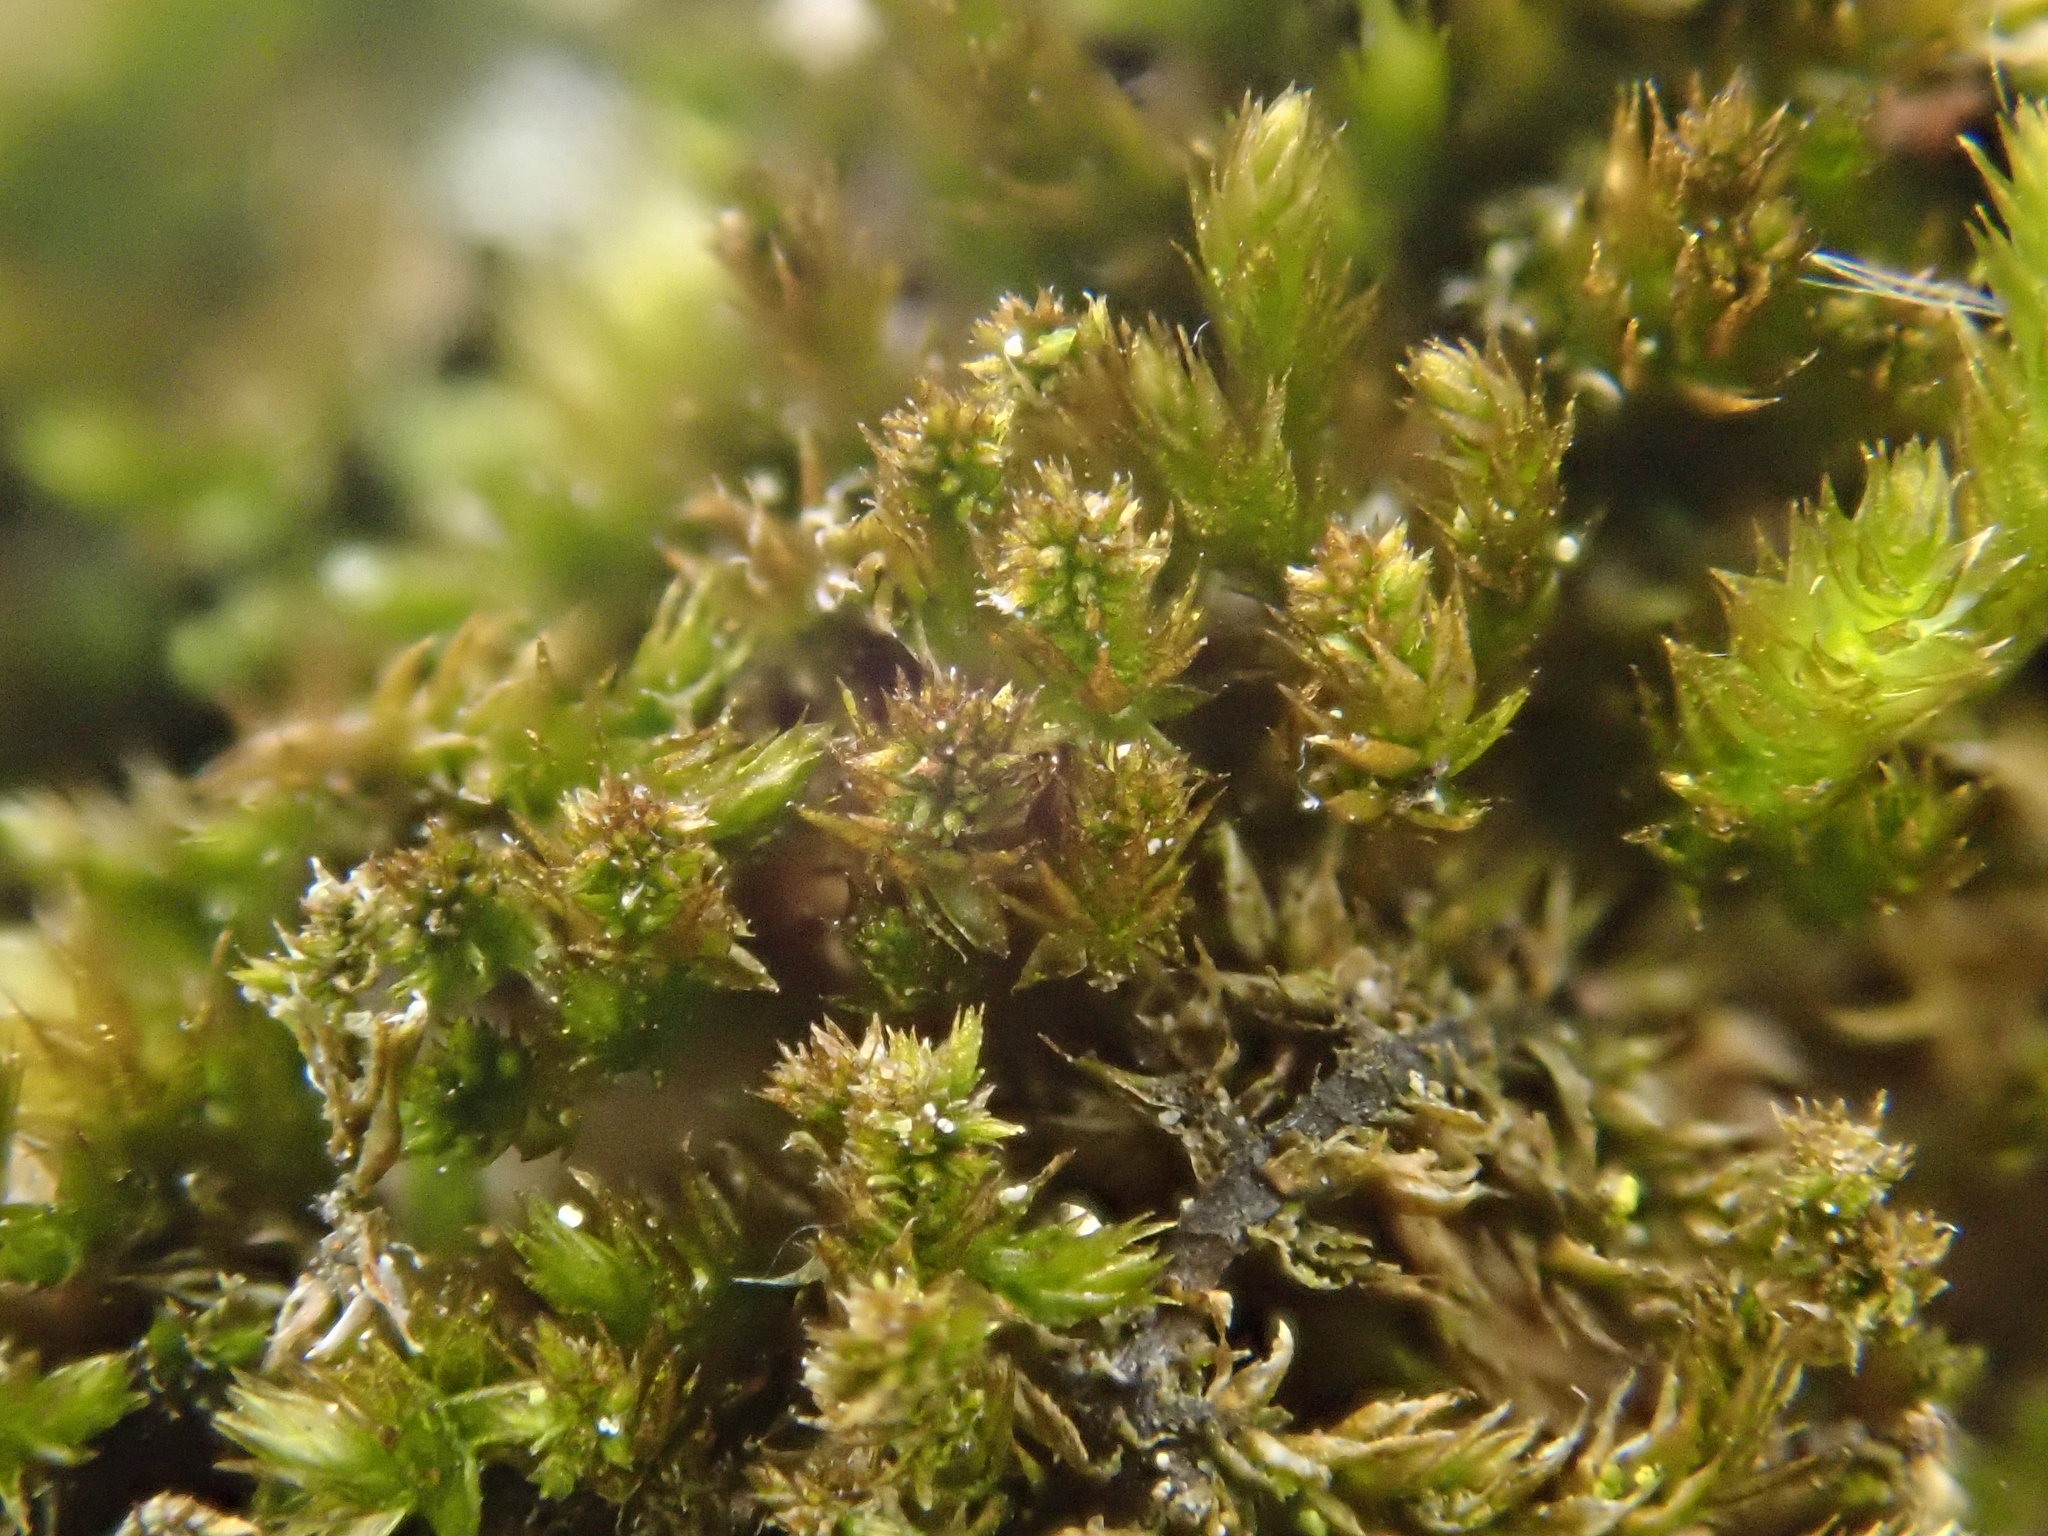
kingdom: Plantae
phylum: Bryophyta
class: Bryopsida
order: Hypnales
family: Pylaisiadelphaceae
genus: Platygyrium
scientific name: Platygyrium repens
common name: Flat-brocade moss
